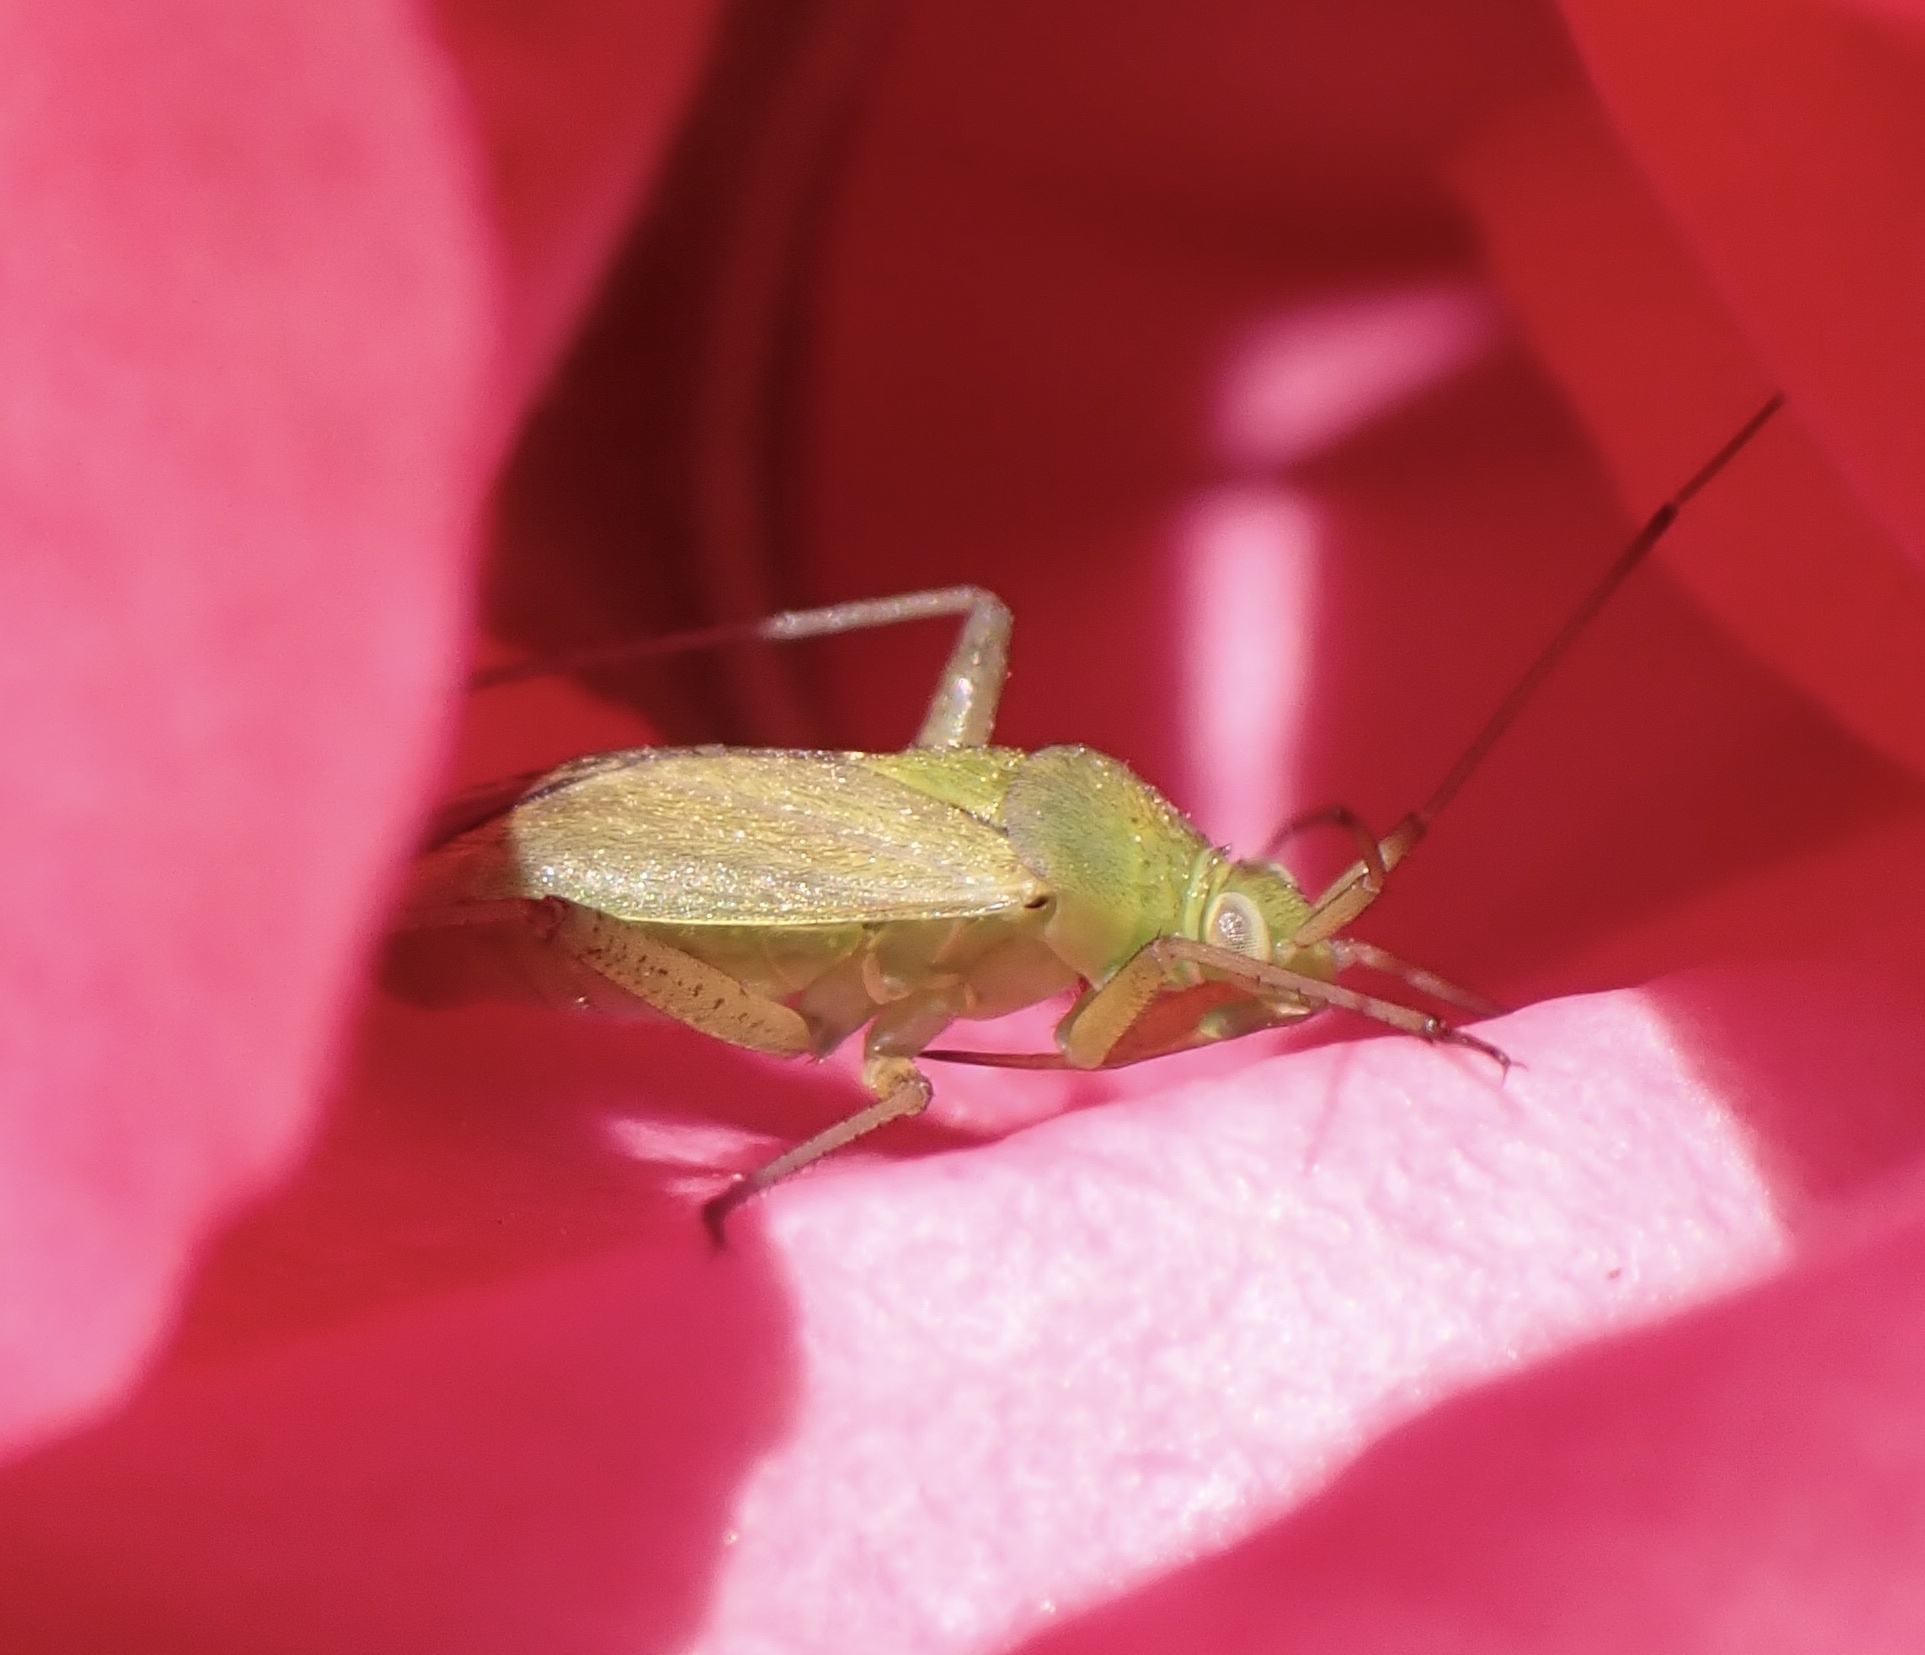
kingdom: Animalia
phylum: Arthropoda
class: Insecta
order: Hemiptera
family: Miridae
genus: Closterotomus
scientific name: Closterotomus norvegicus
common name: Plant bug
